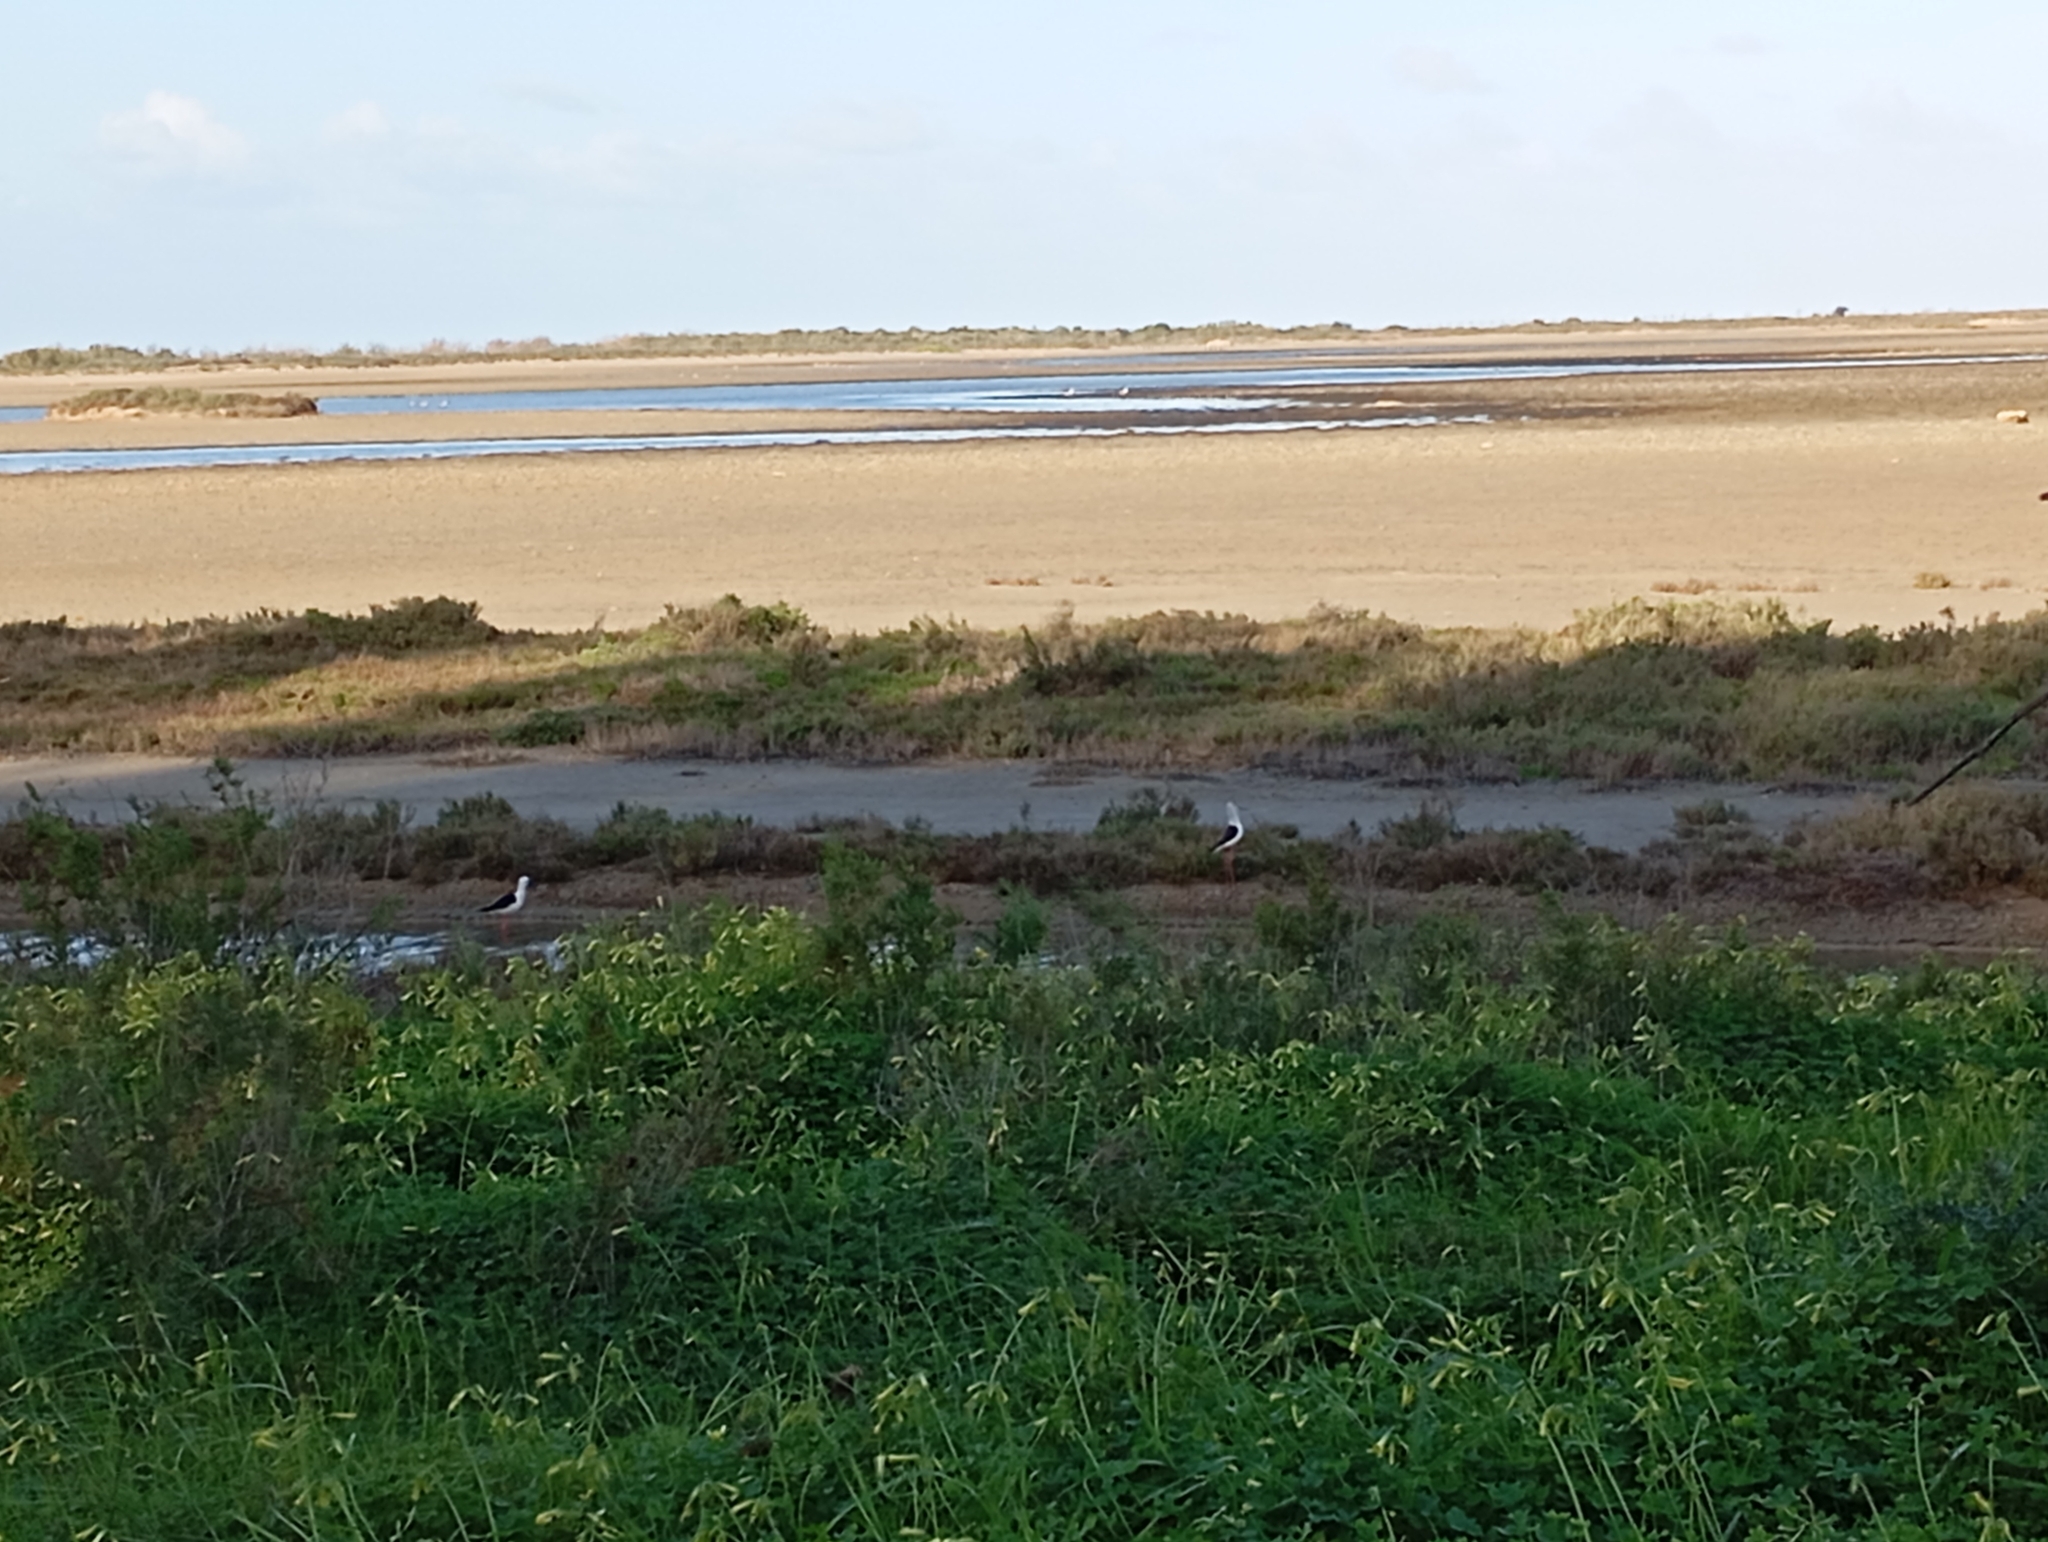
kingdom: Animalia
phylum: Chordata
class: Aves
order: Charadriiformes
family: Recurvirostridae
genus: Himantopus
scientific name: Himantopus himantopus
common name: Black-winged stilt
